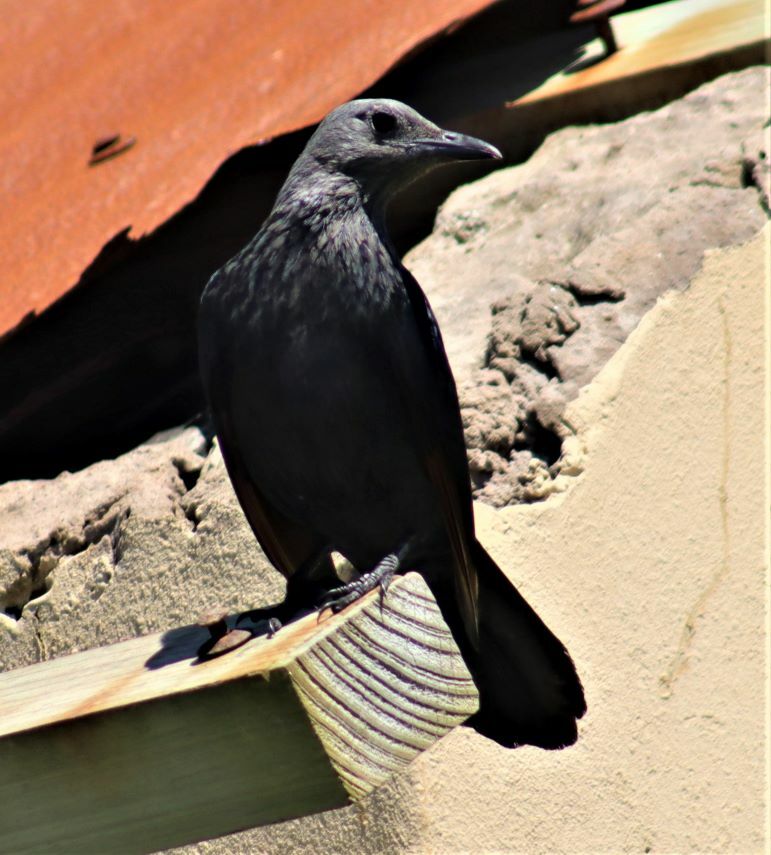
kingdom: Animalia
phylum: Chordata
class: Aves
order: Passeriformes
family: Sturnidae
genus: Onychognathus
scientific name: Onychognathus morio
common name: Red-winged starling
